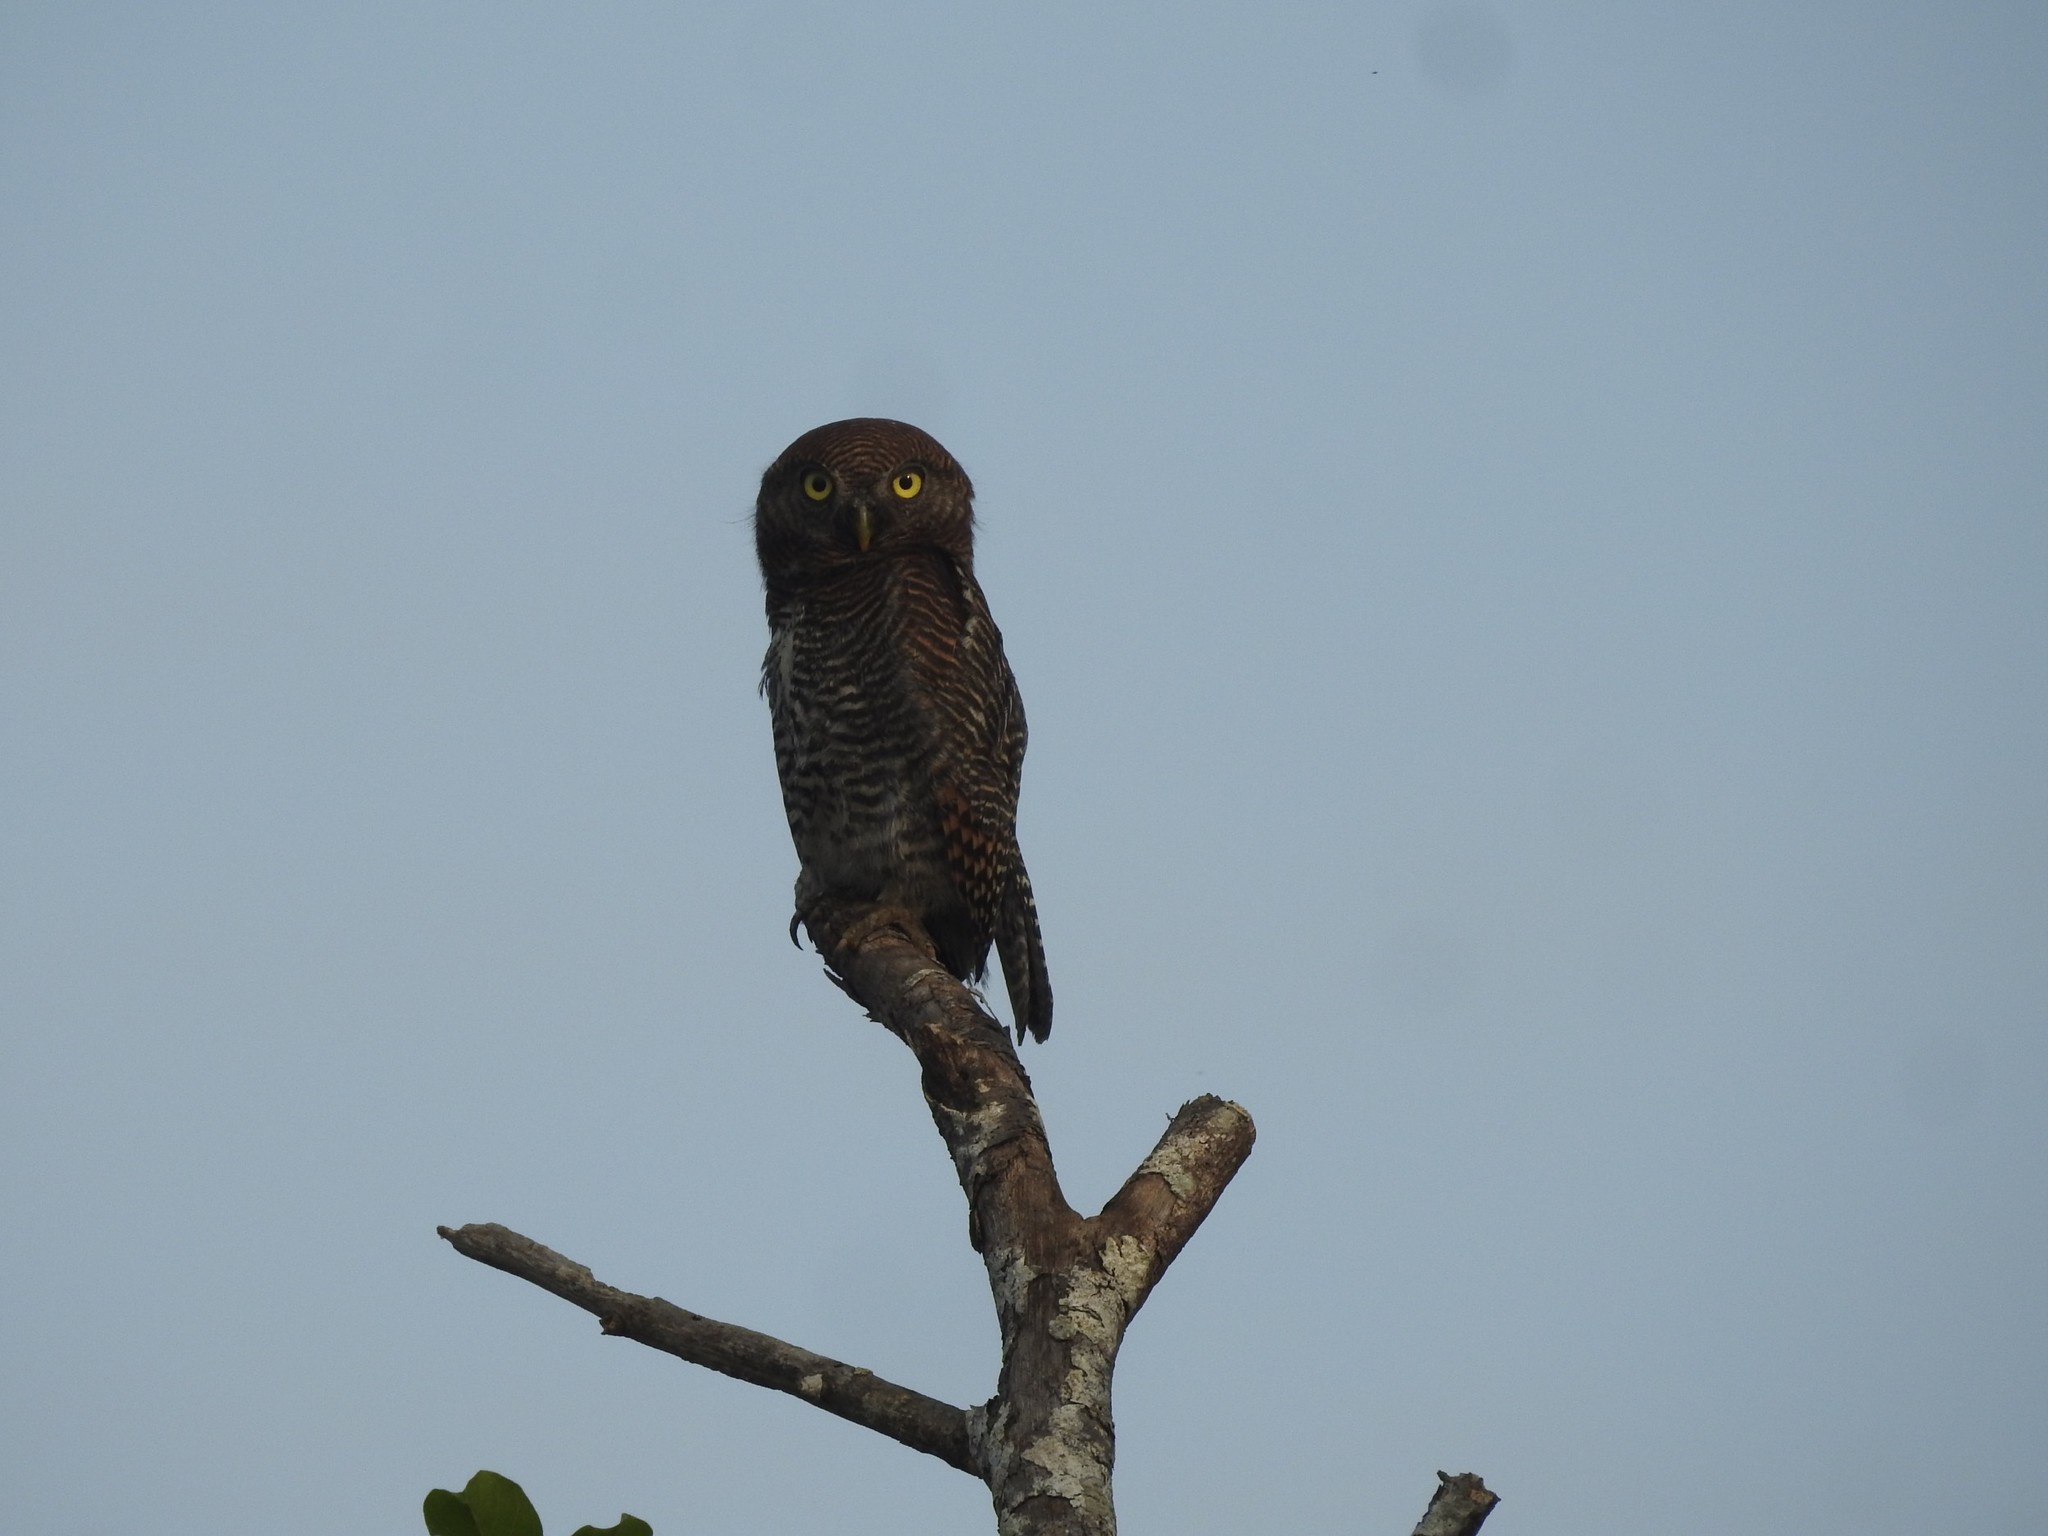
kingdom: Animalia
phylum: Chordata
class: Aves
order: Strigiformes
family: Strigidae
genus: Glaucidium
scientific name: Glaucidium radiatum
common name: Jungle owlet
